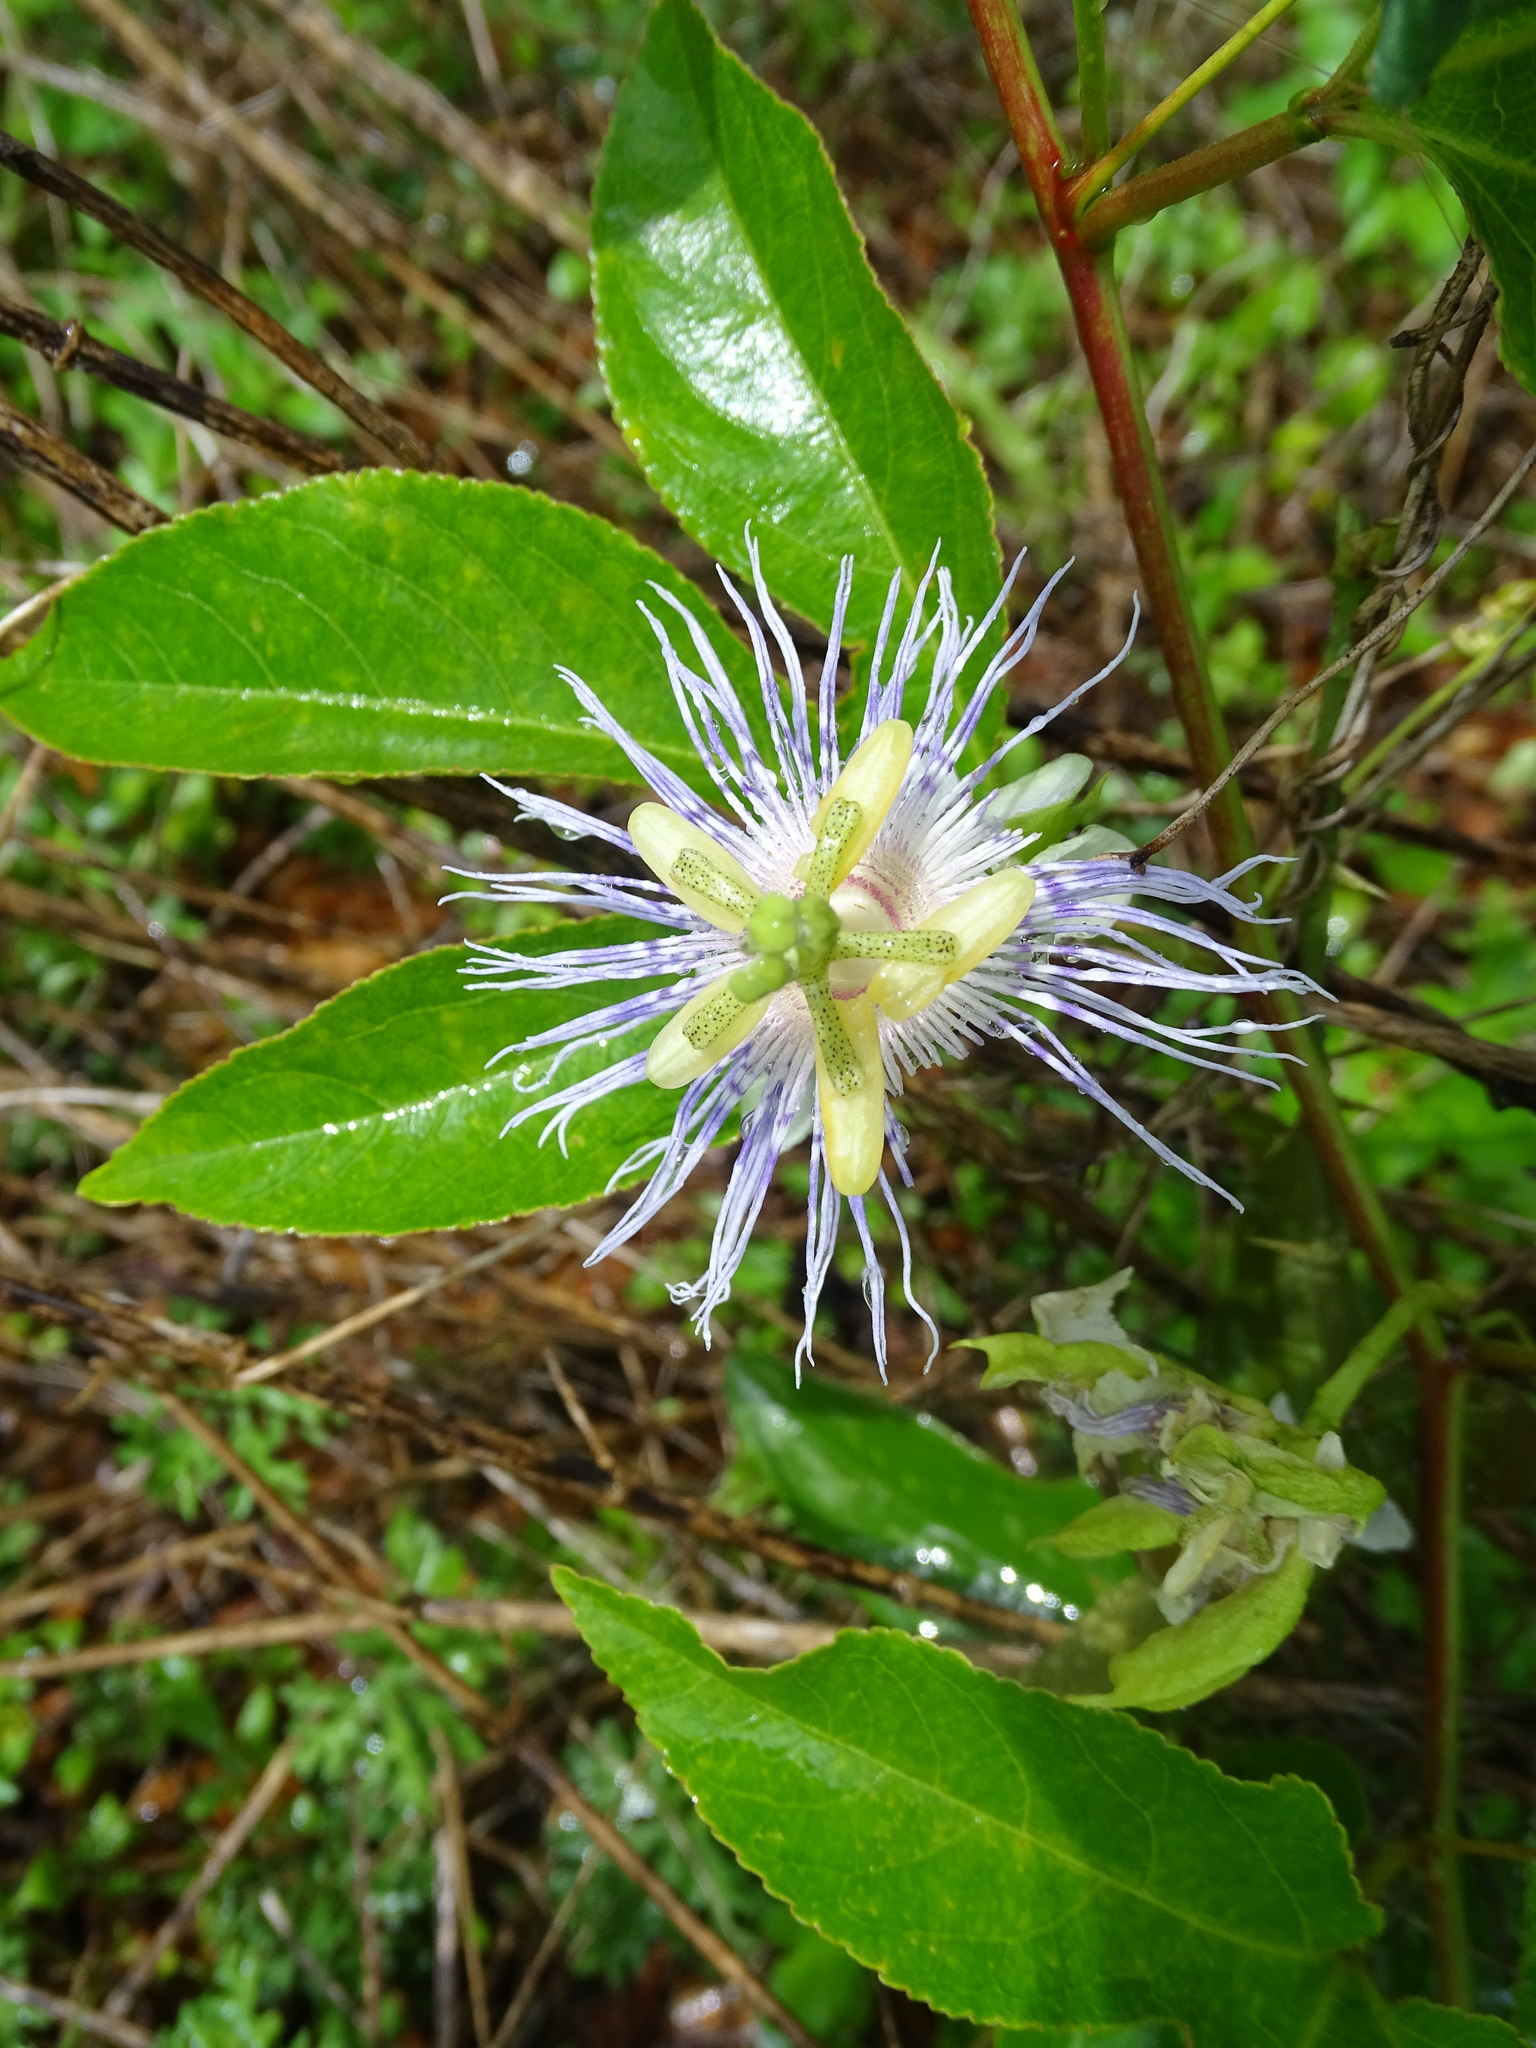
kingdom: Plantae
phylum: Tracheophyta
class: Magnoliopsida
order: Malpighiales
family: Passifloraceae
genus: Passiflora
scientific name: Passiflora incarnata
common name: Apricot-vine
